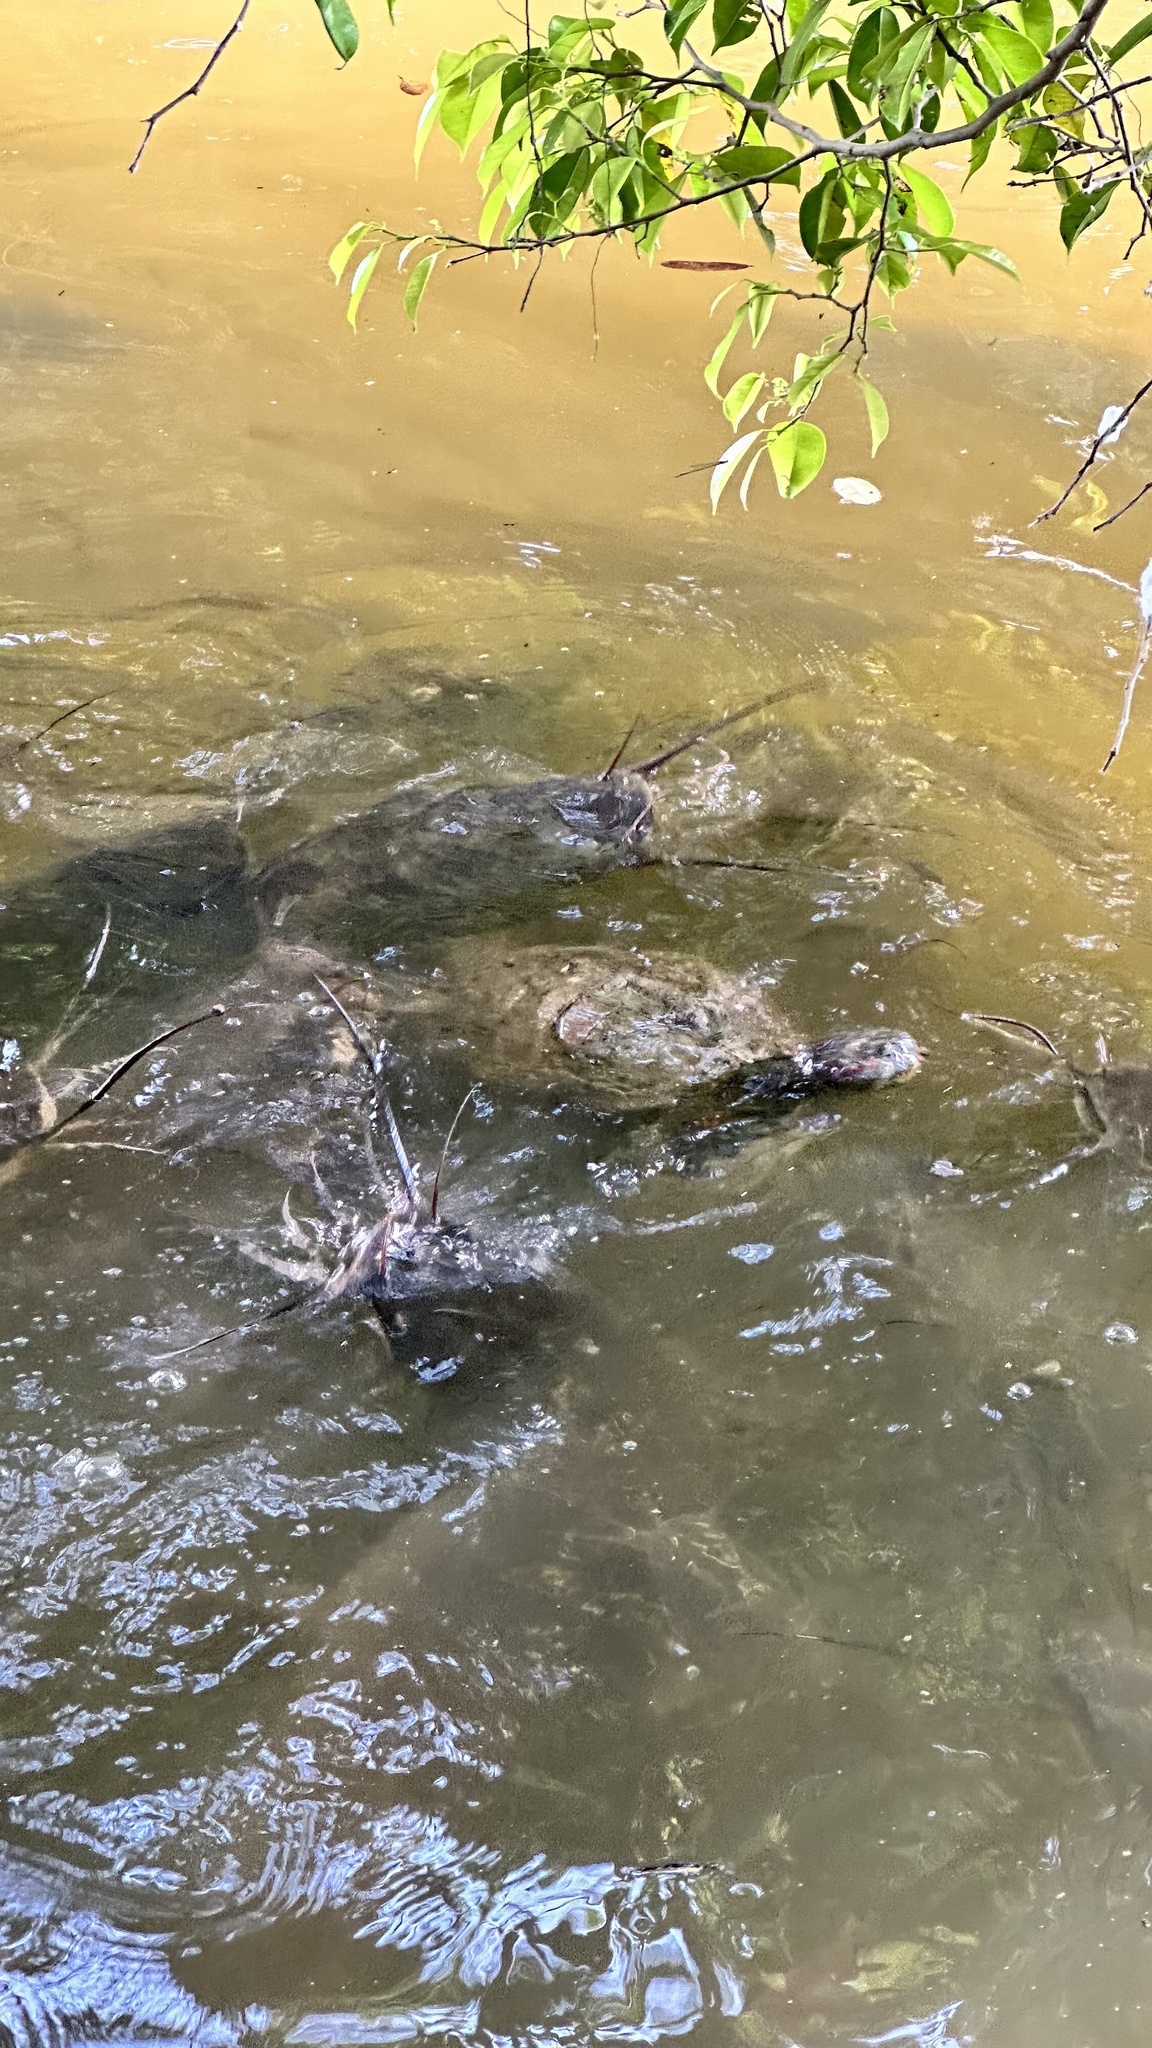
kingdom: Animalia
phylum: Chordata
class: Testudines
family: Emydidae
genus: Trachemys
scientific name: Trachemys scripta
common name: Slider
